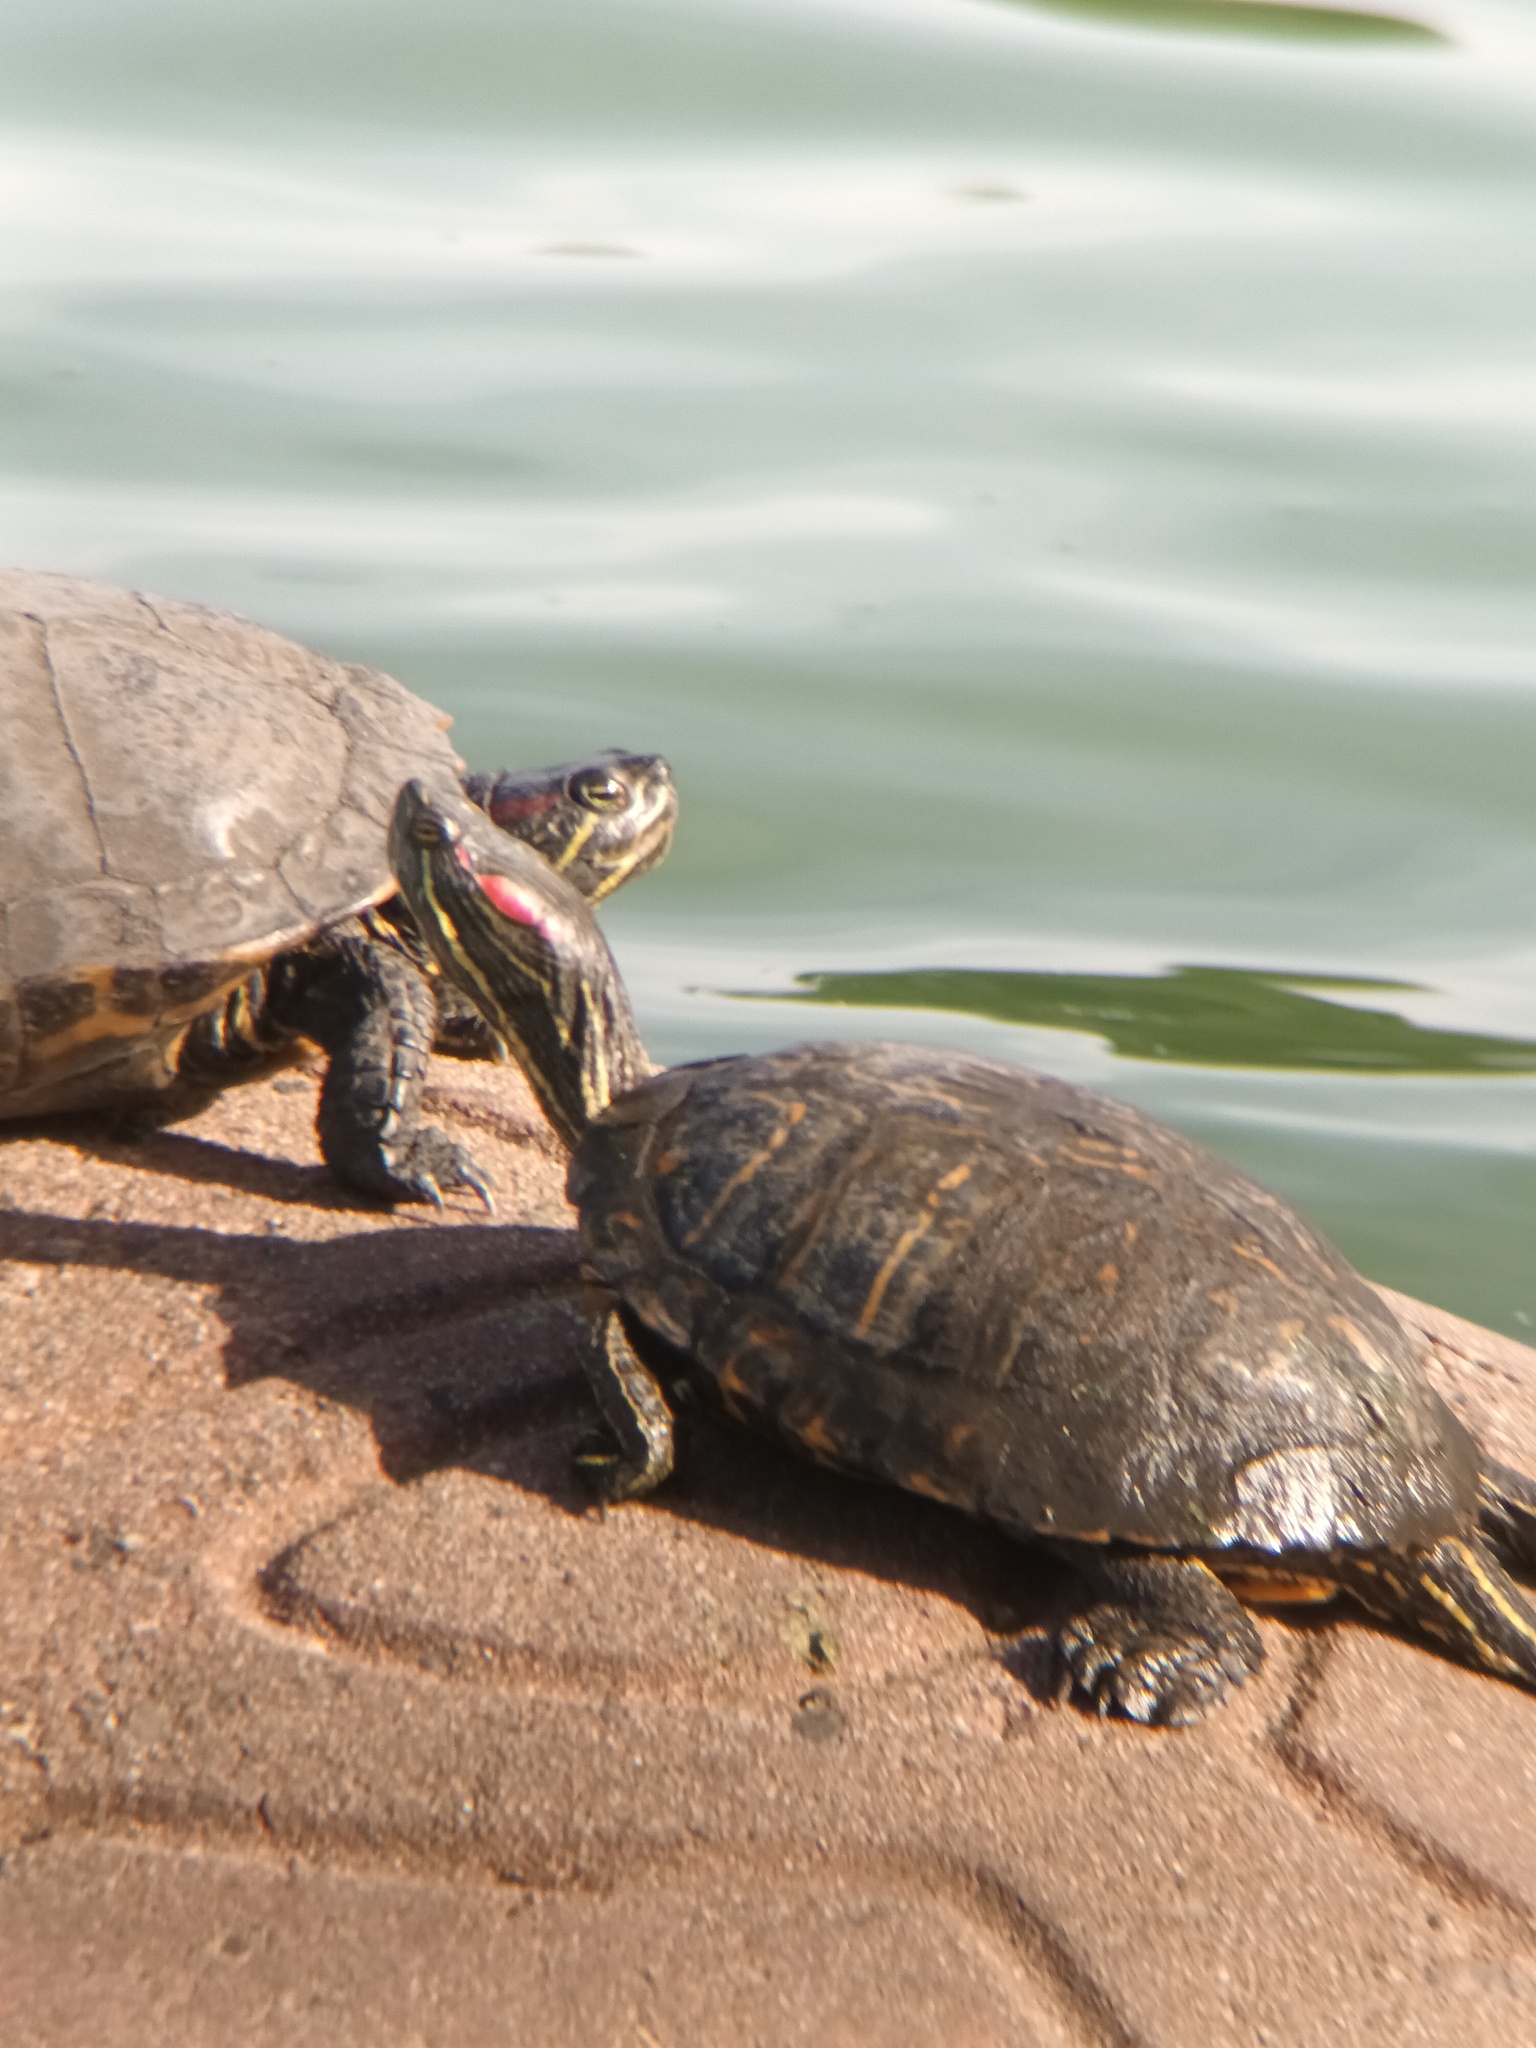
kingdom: Animalia
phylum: Chordata
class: Testudines
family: Emydidae
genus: Trachemys
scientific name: Trachemys scripta
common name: Slider
